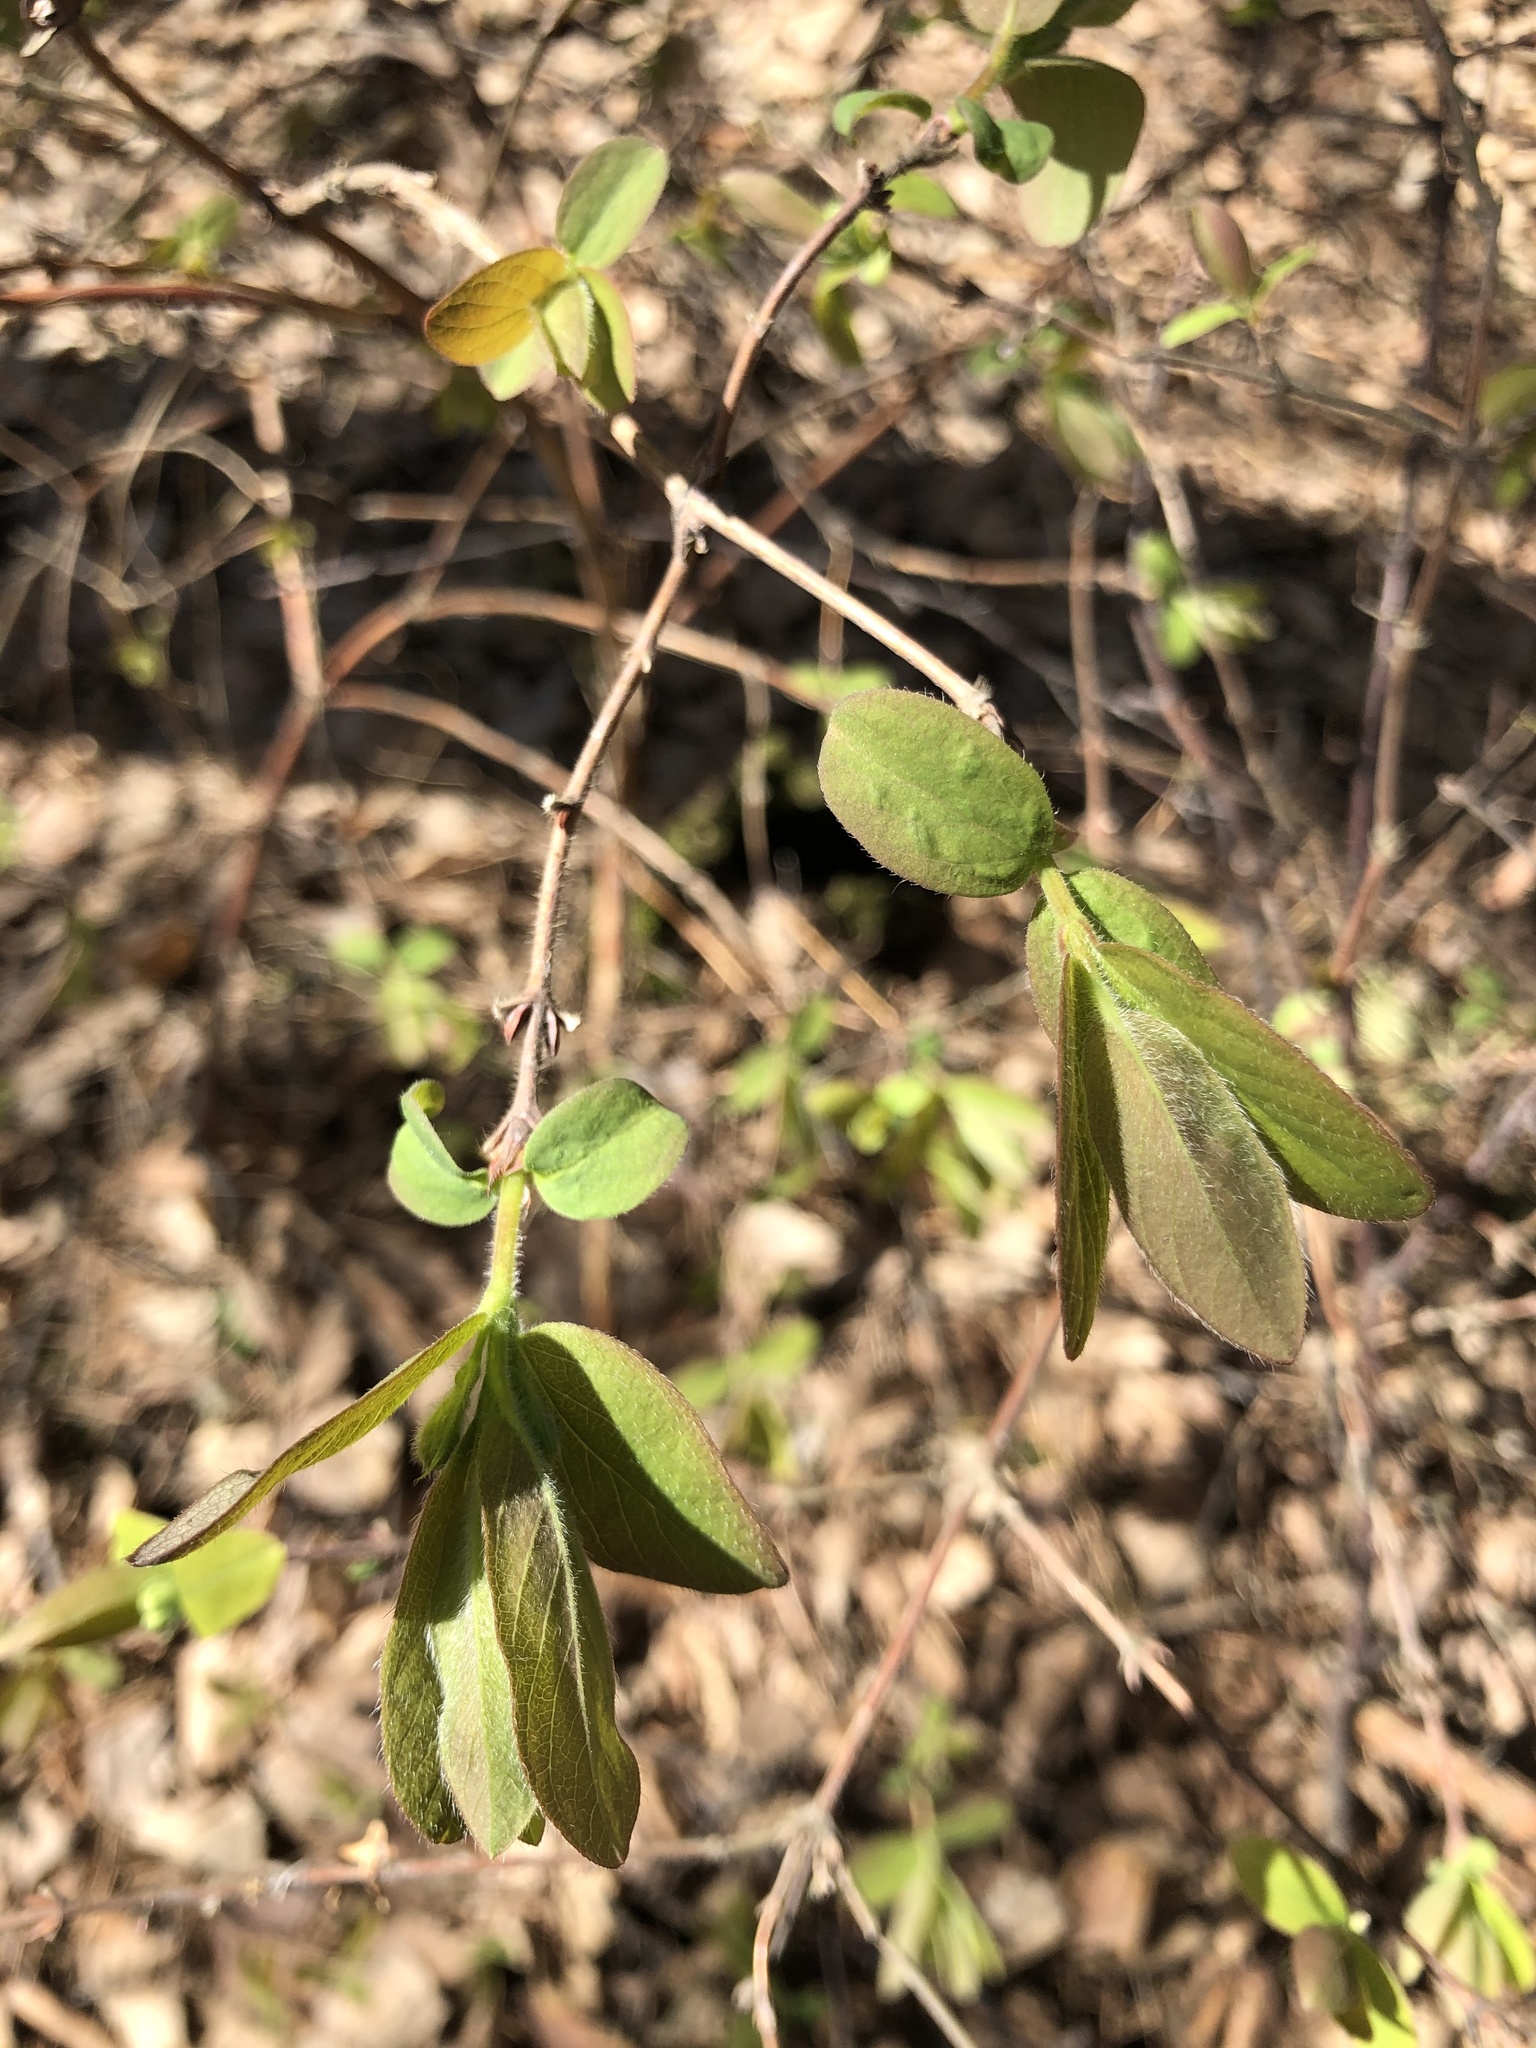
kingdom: Plantae
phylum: Tracheophyta
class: Magnoliopsida
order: Dipsacales
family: Caprifoliaceae
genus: Lonicera
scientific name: Lonicera xylosteum
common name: Fly honeysuckle
